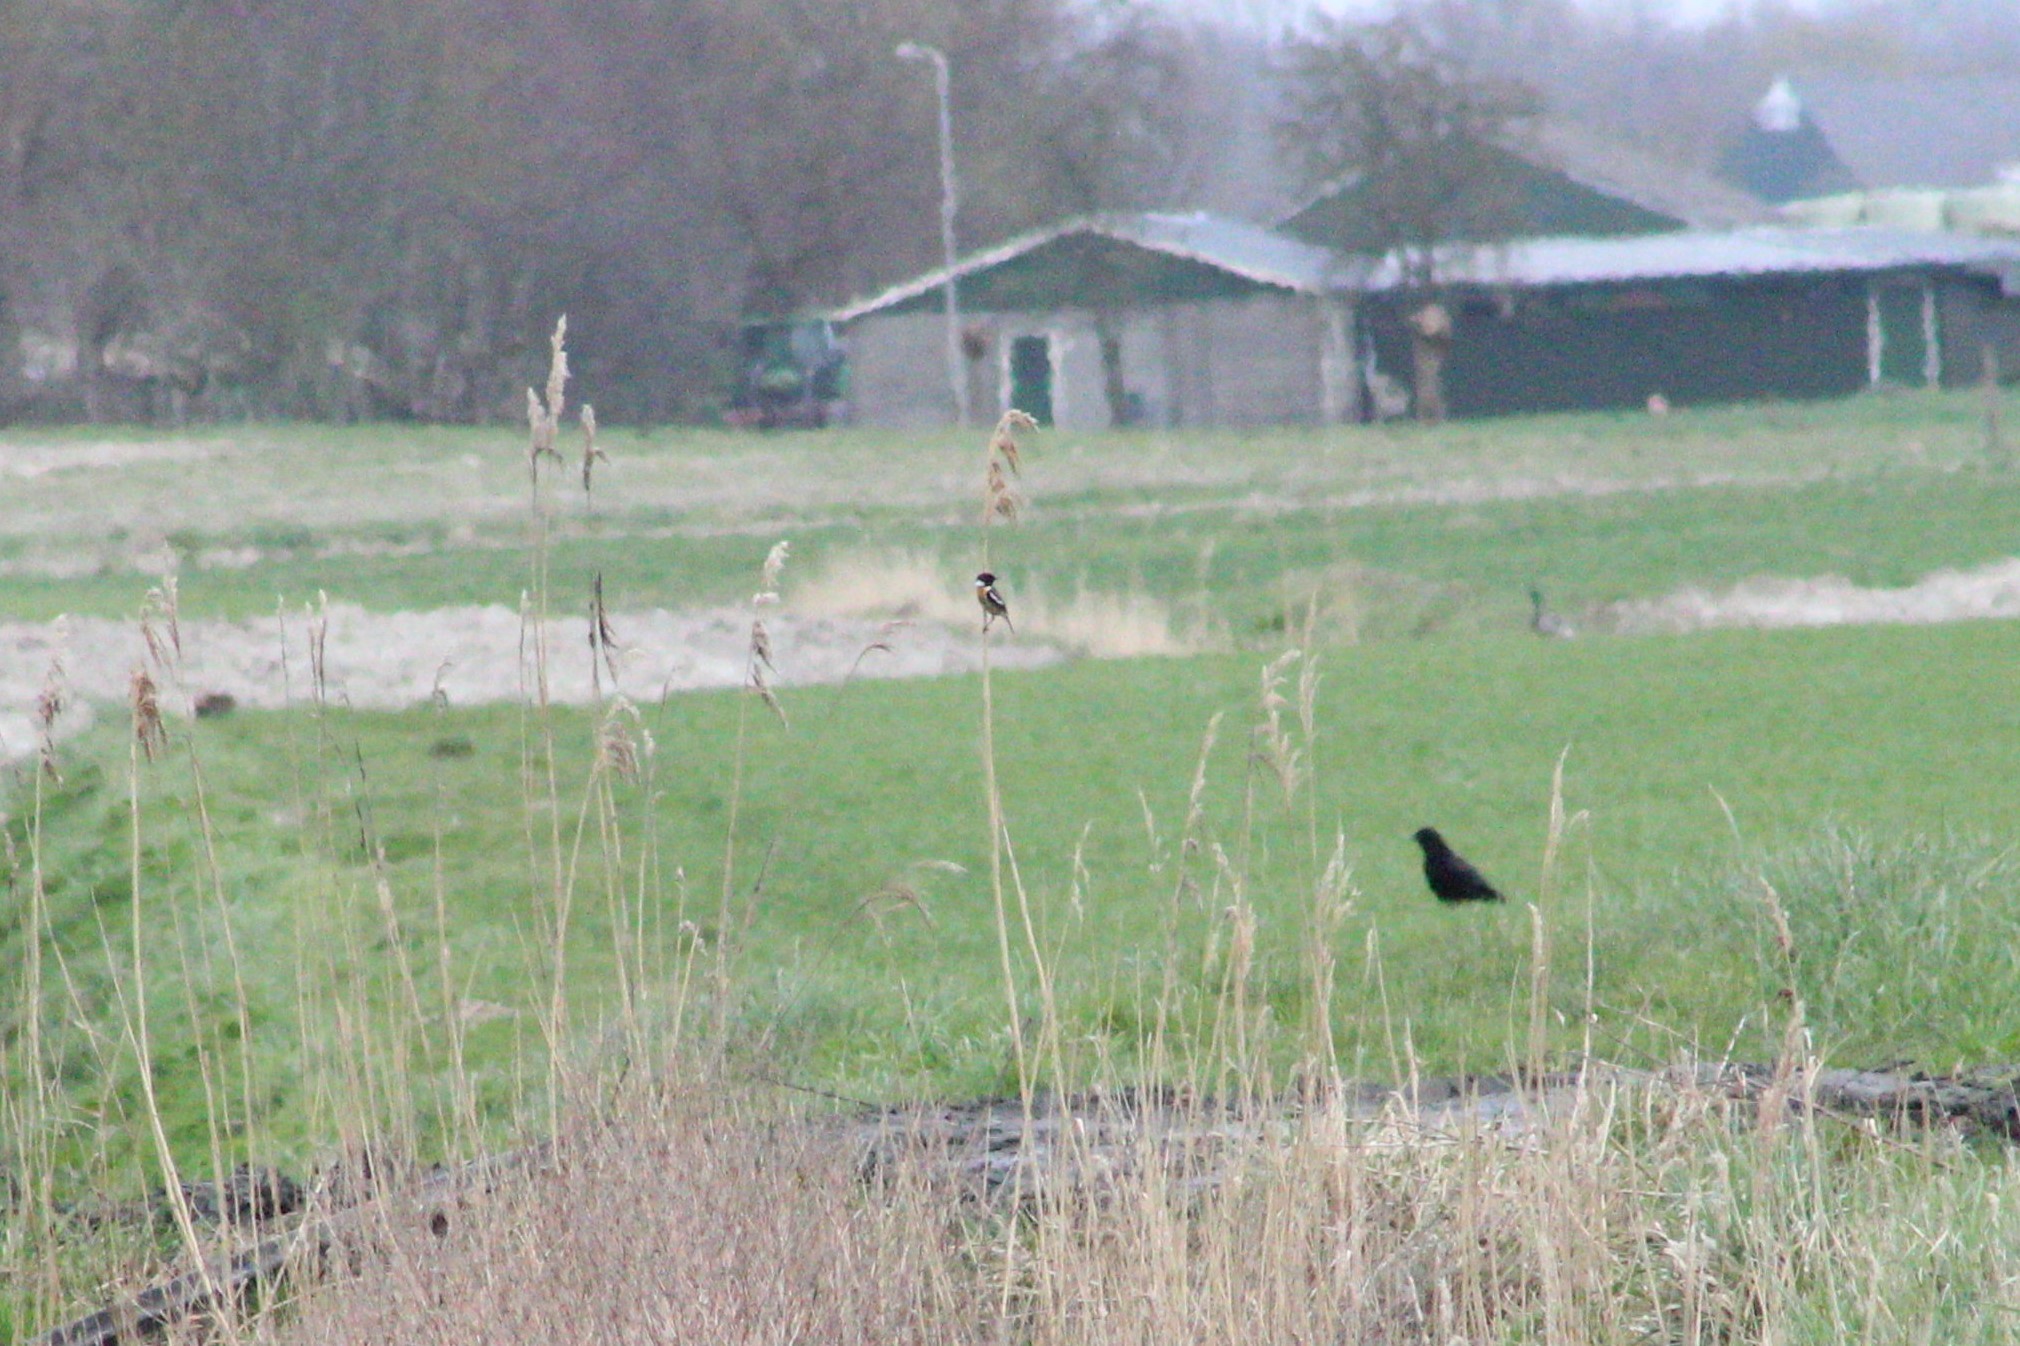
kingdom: Animalia
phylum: Chordata
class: Aves
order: Passeriformes
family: Muscicapidae
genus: Saxicola
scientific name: Saxicola rubicola
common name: European stonechat
